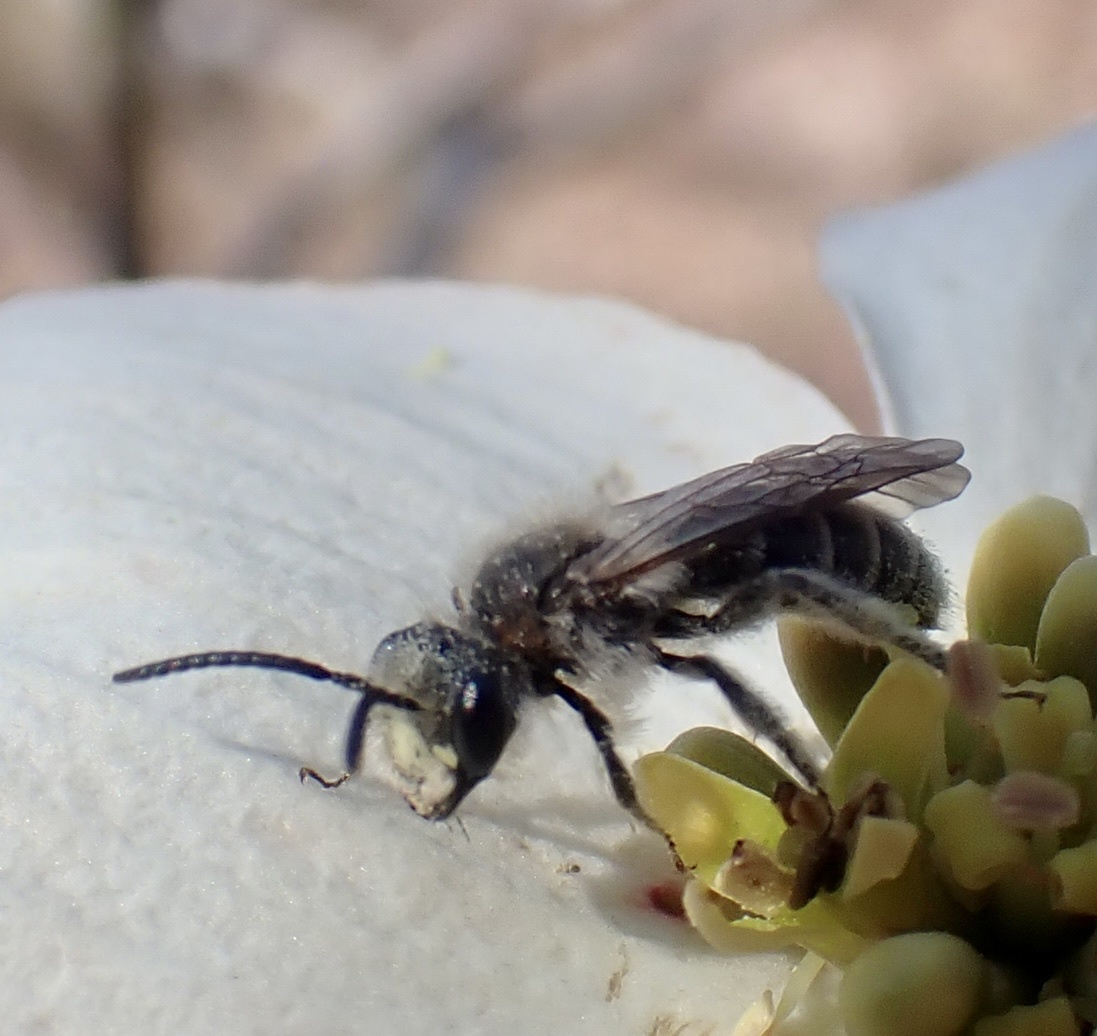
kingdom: Animalia
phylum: Arthropoda
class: Insecta
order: Hymenoptera
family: Andrenidae
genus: Andrena
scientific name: Andrena cressonii
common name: Cresson's mining bee
